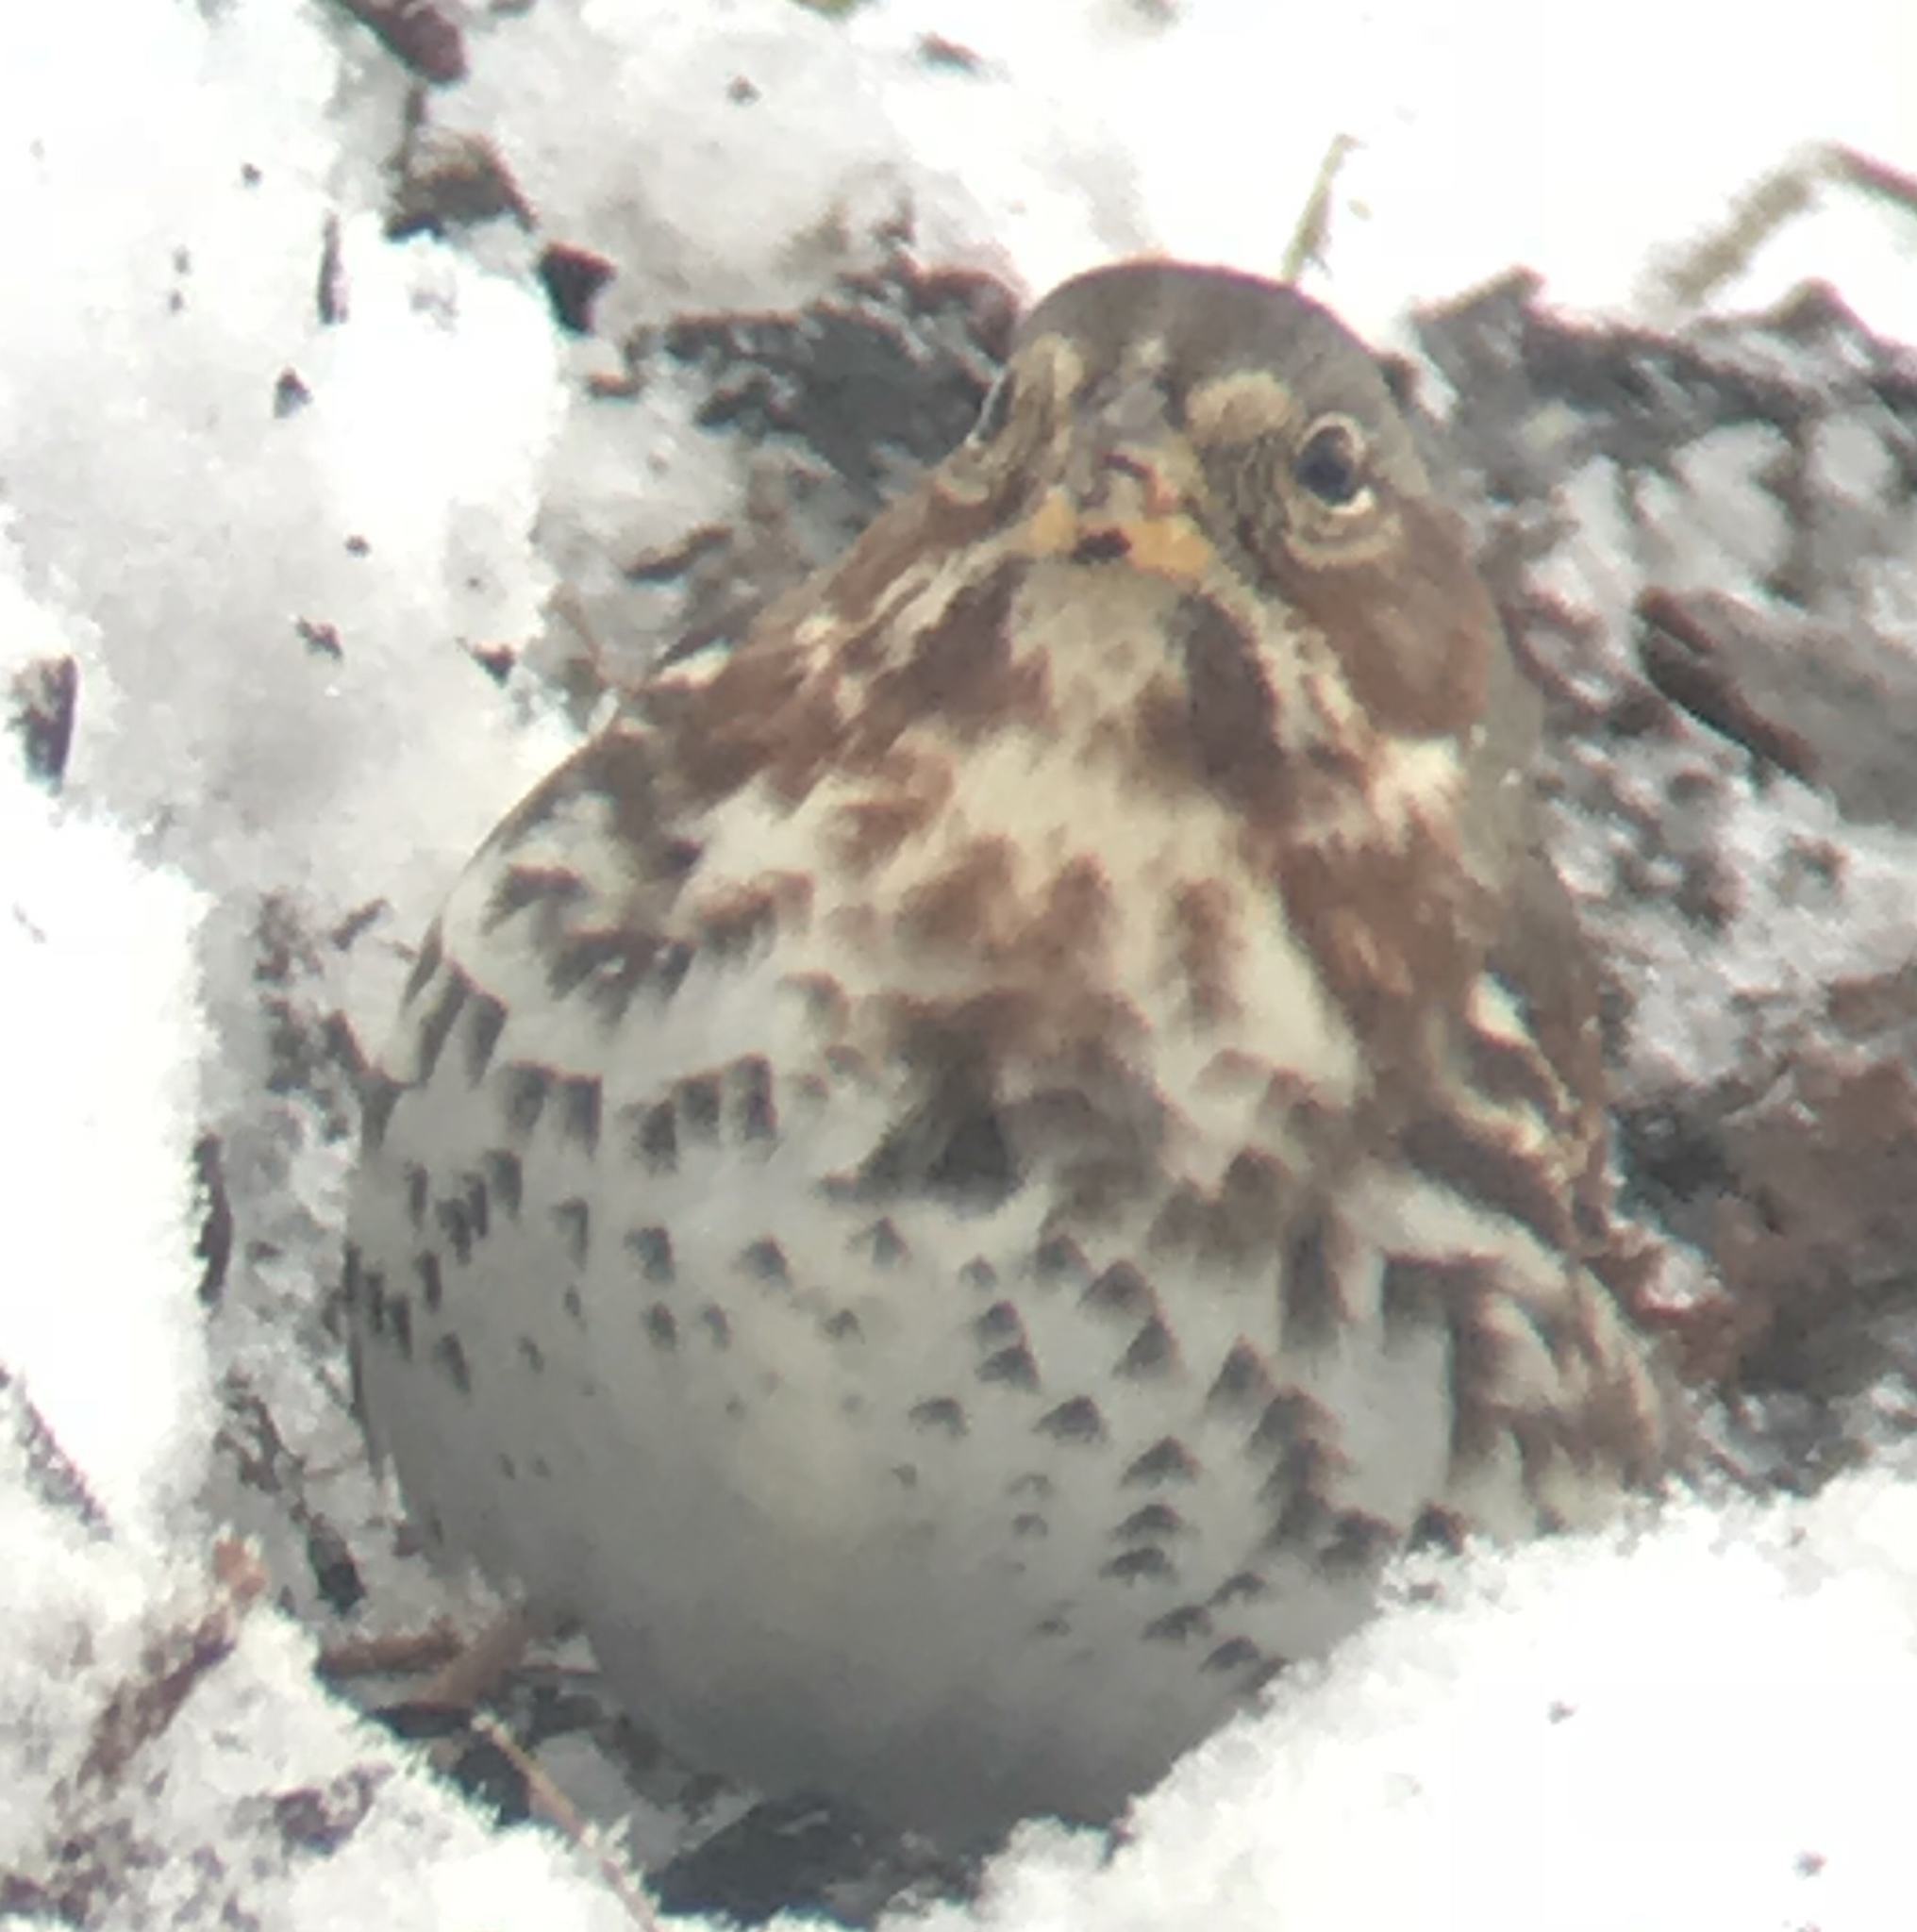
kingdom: Animalia
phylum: Chordata
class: Aves
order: Passeriformes
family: Passerellidae
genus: Passerella
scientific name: Passerella iliaca
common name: Fox sparrow
